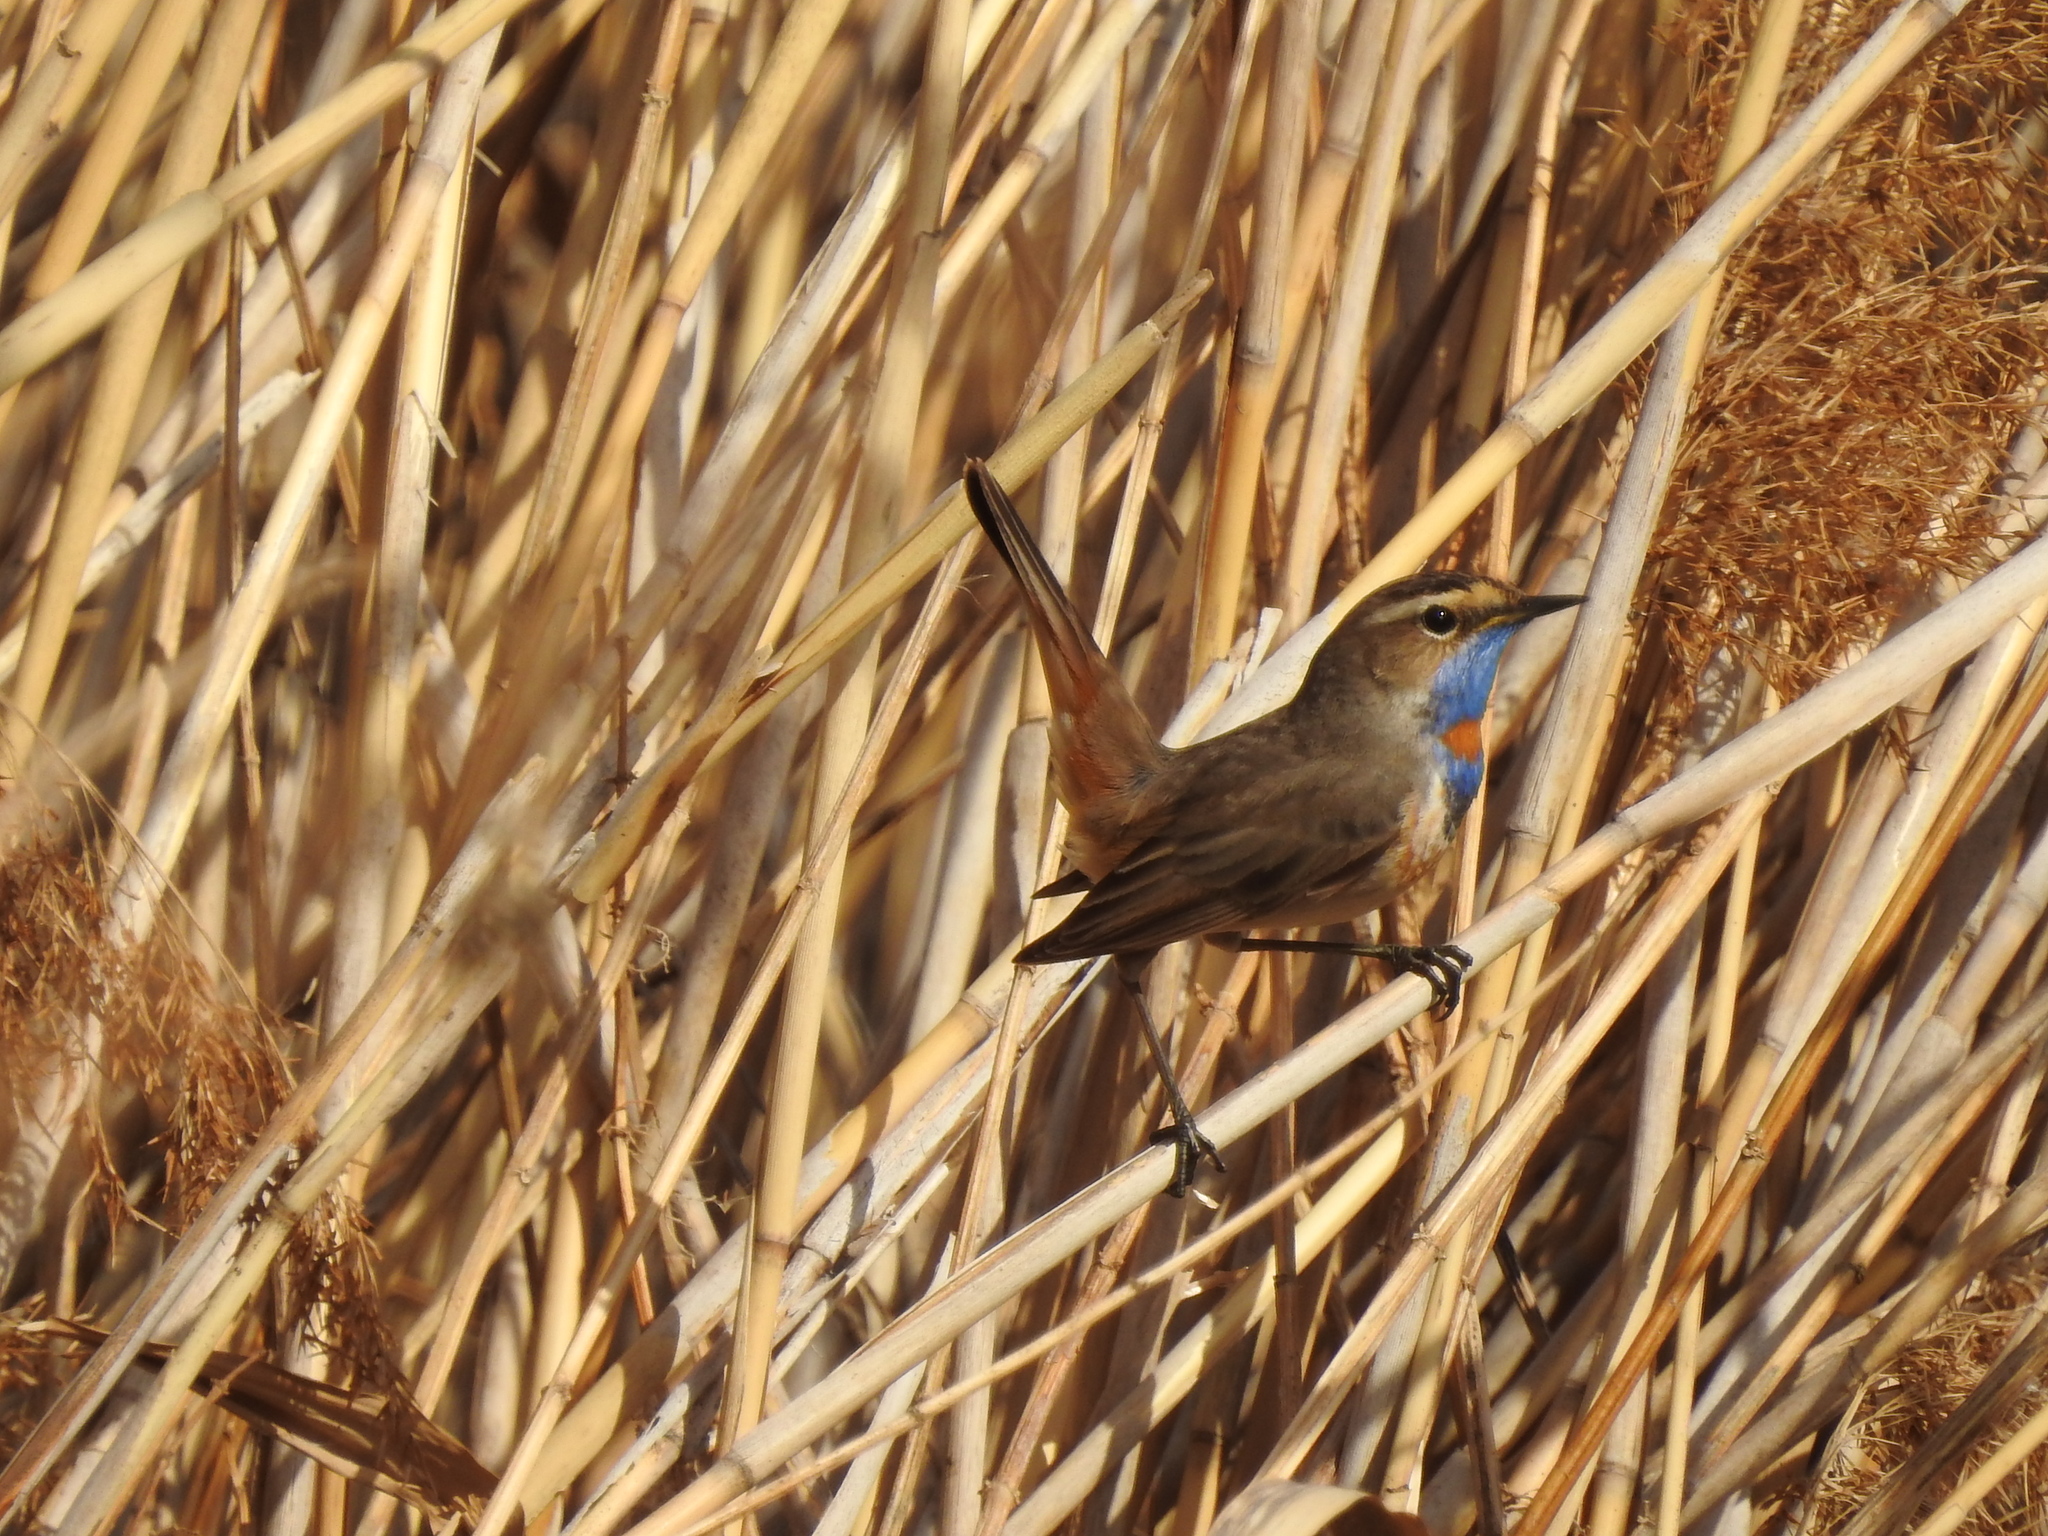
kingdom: Animalia
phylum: Chordata
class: Aves
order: Passeriformes
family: Muscicapidae
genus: Luscinia
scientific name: Luscinia svecica
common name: Bluethroat
